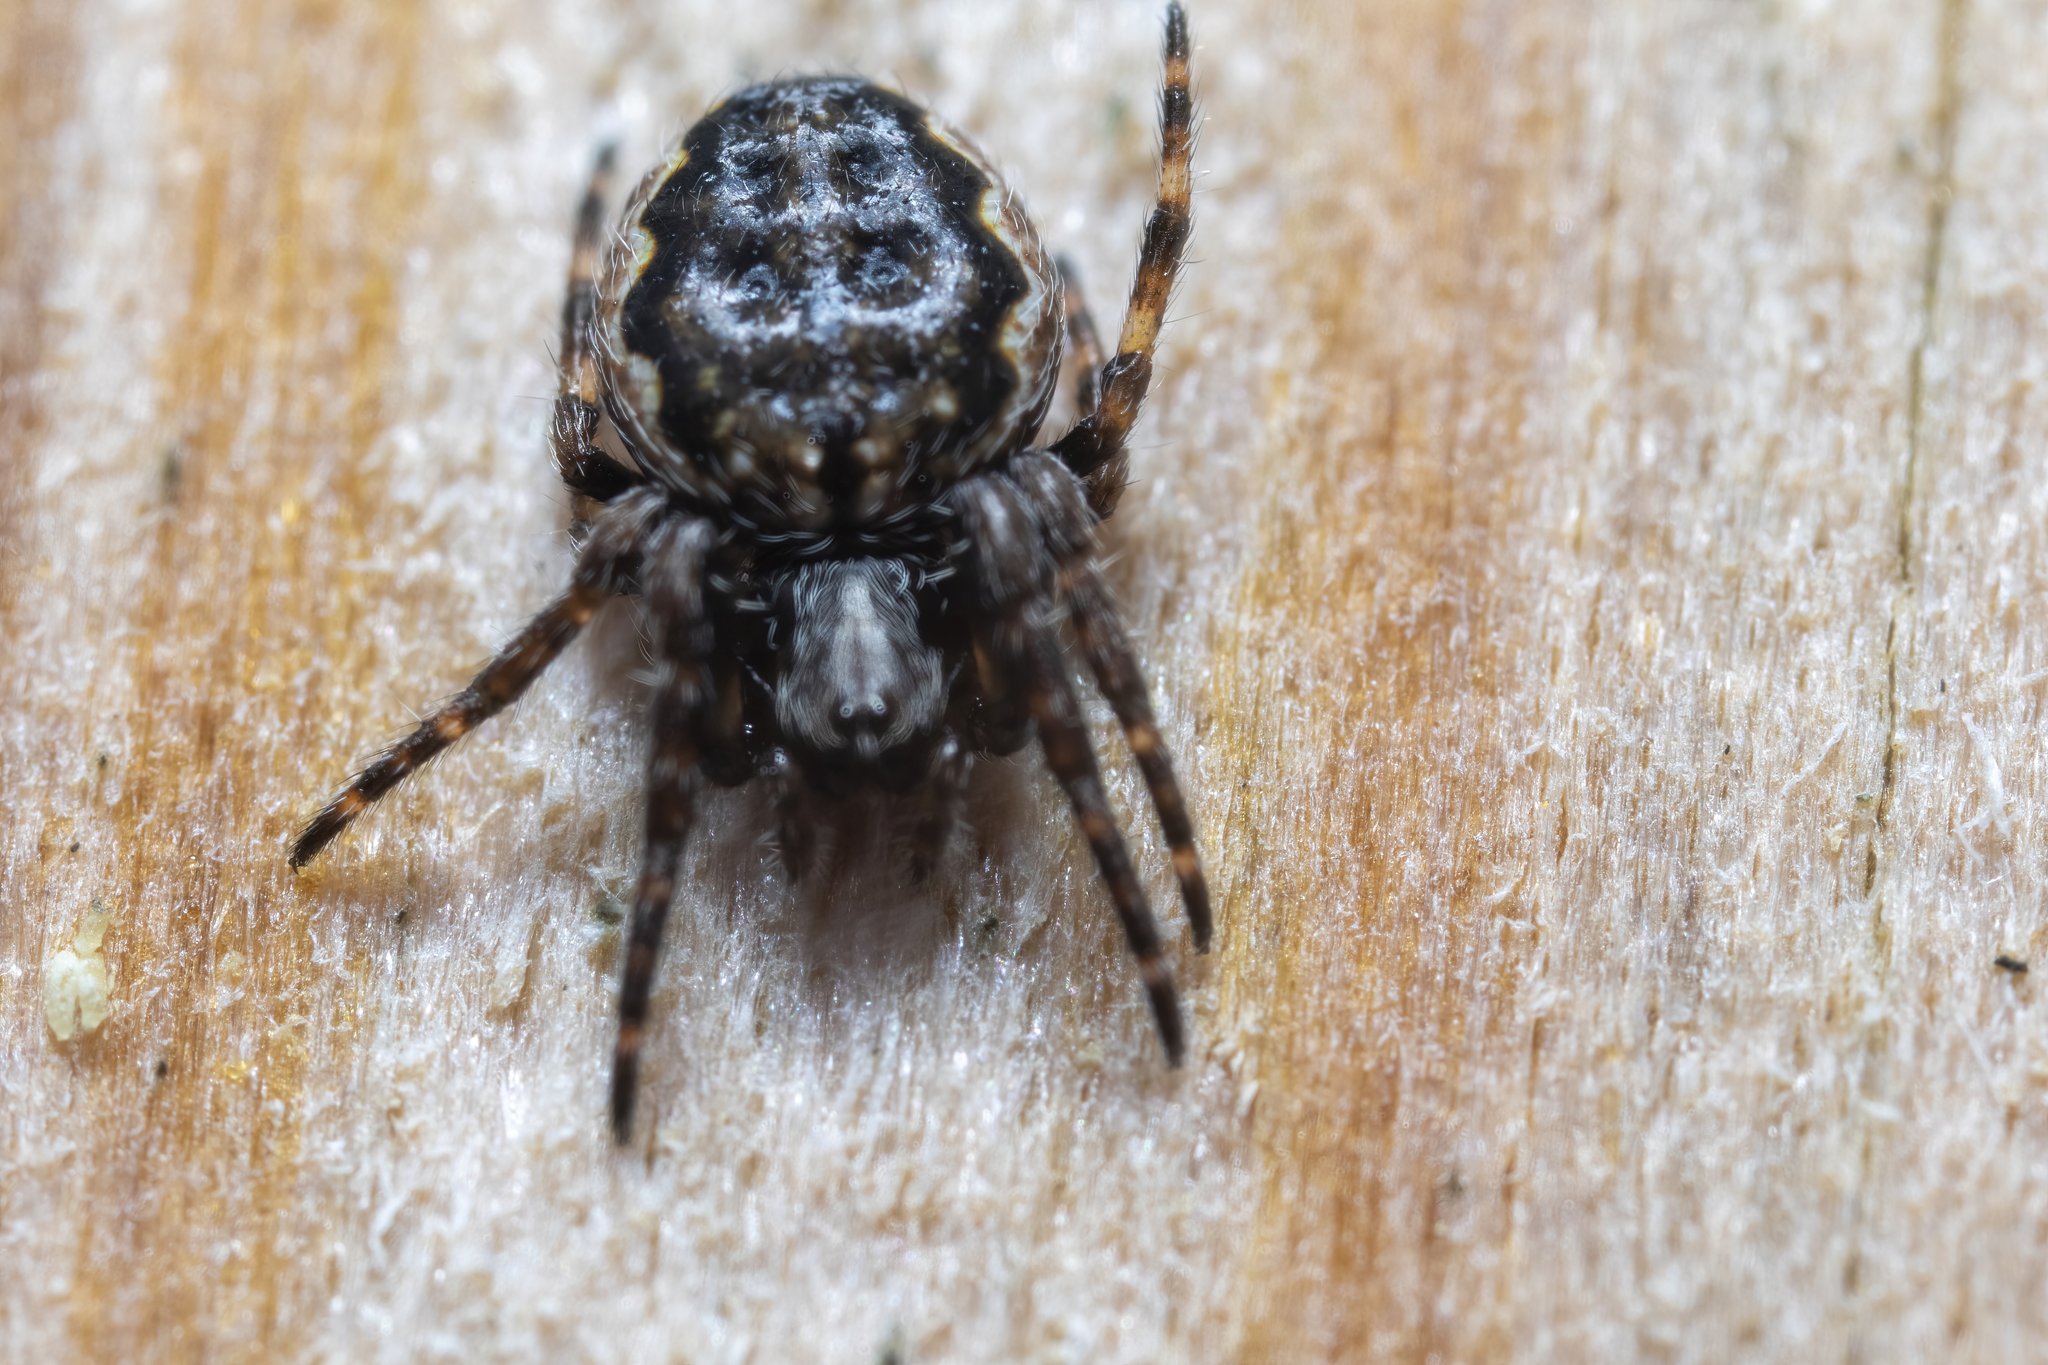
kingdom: Animalia
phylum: Arthropoda
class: Arachnida
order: Araneae
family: Araneidae
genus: Nuctenea
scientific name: Nuctenea umbratica
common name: Toad spider
